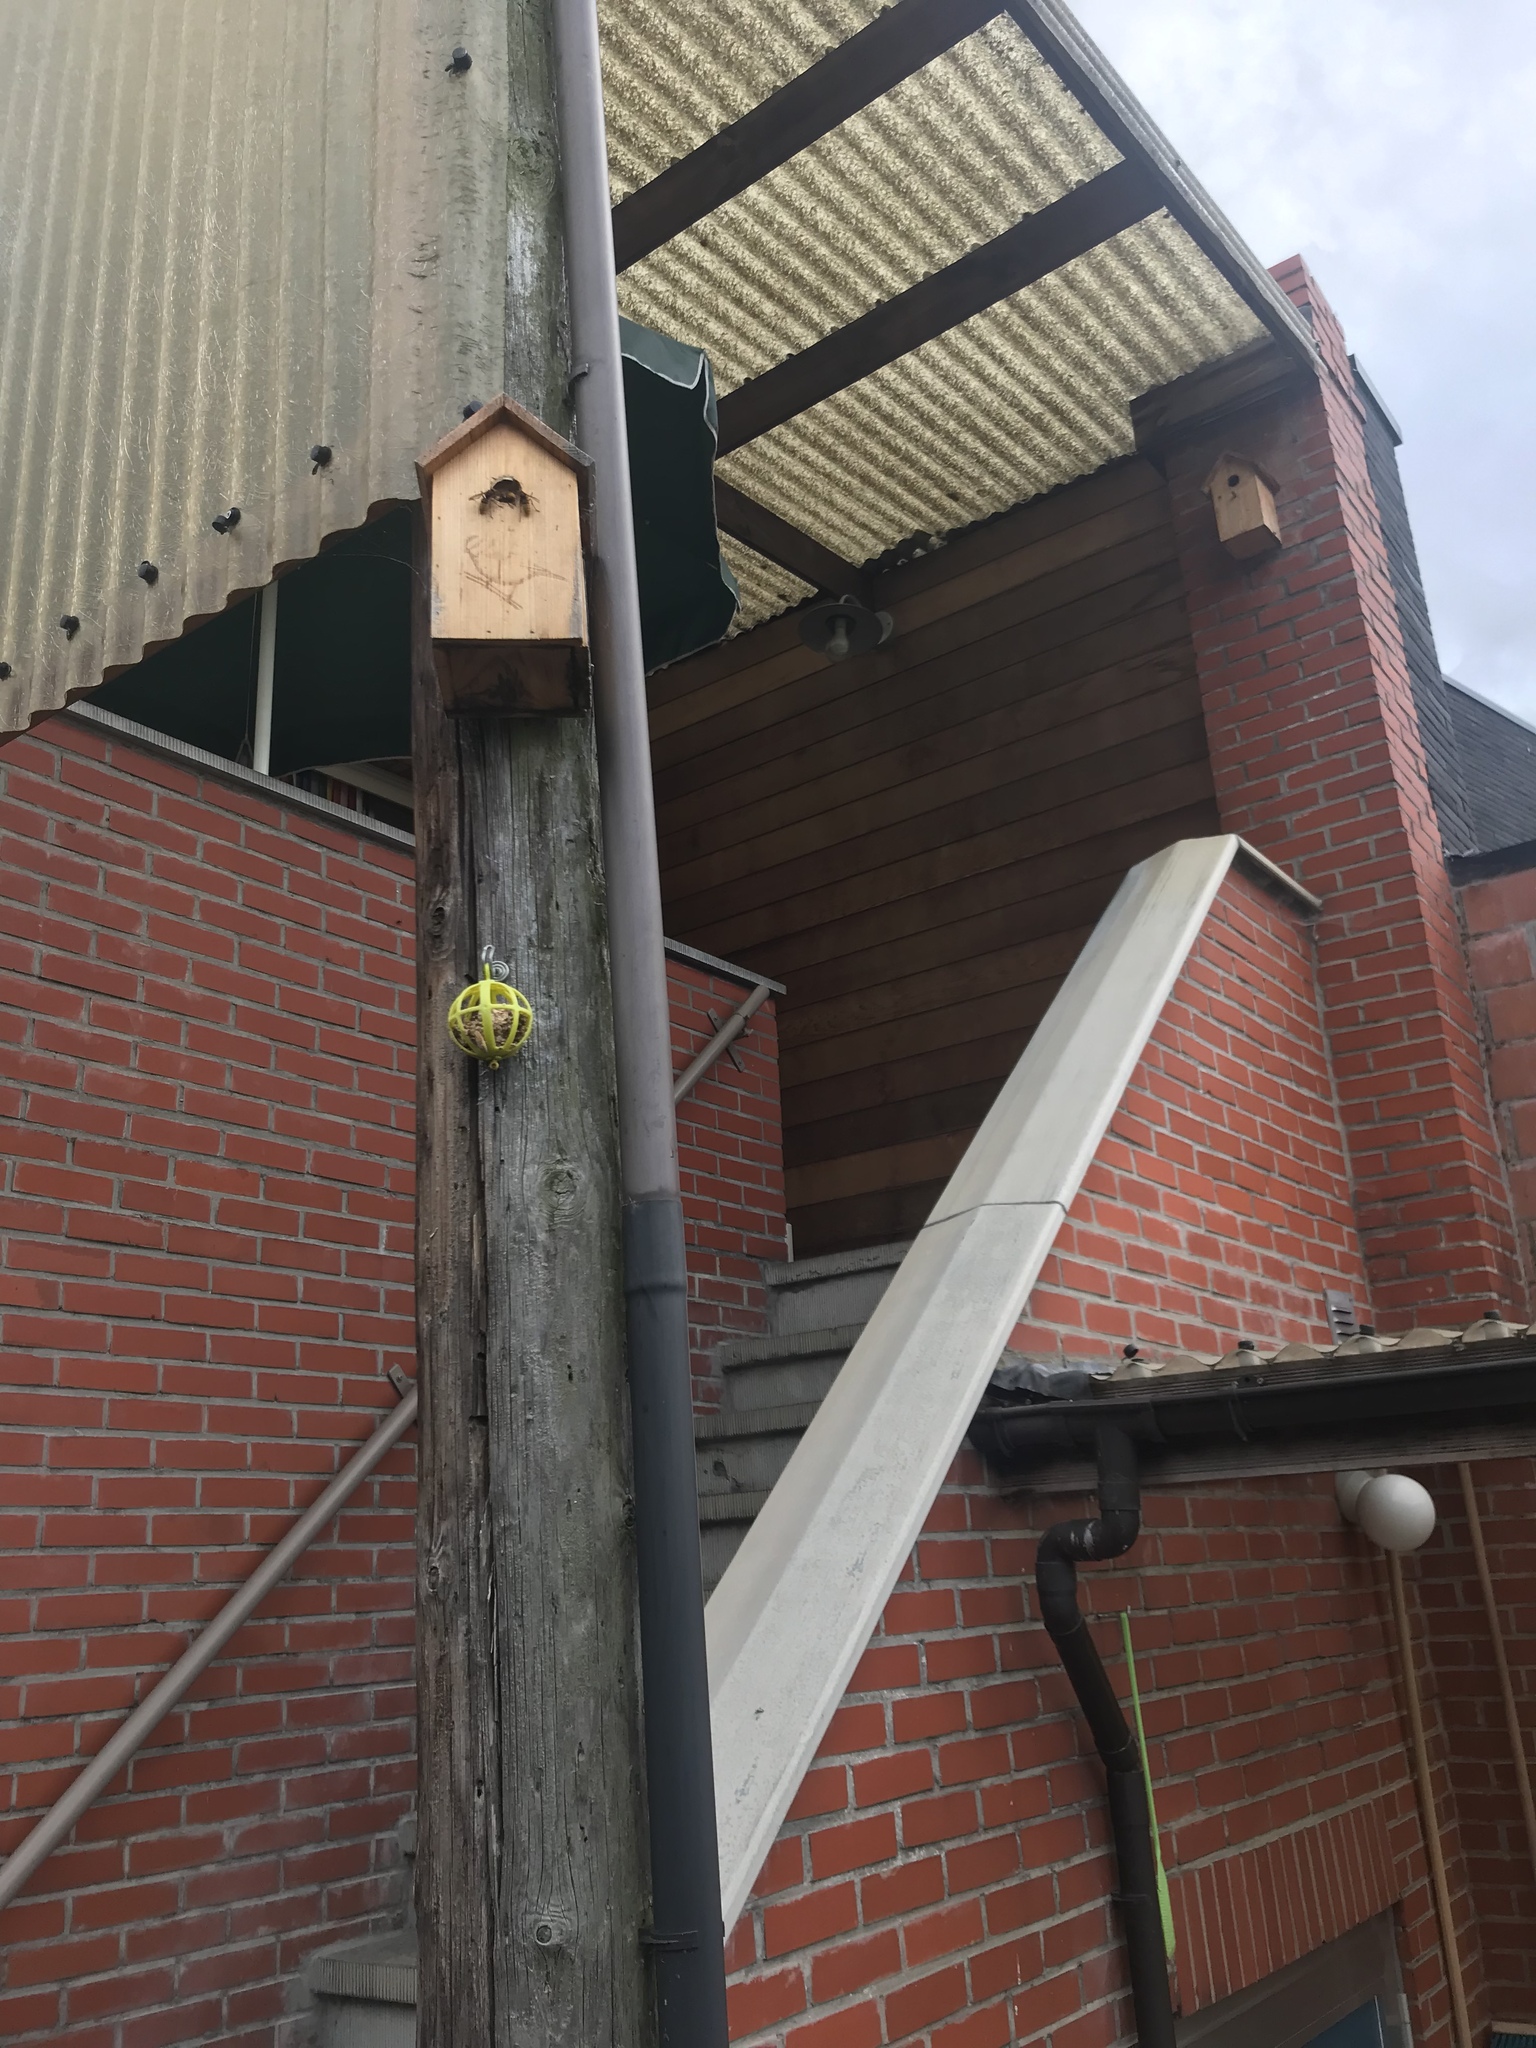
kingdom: Animalia
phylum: Arthropoda
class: Insecta
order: Hymenoptera
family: Vespidae
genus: Vespa
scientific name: Vespa crabro
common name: Hornet
